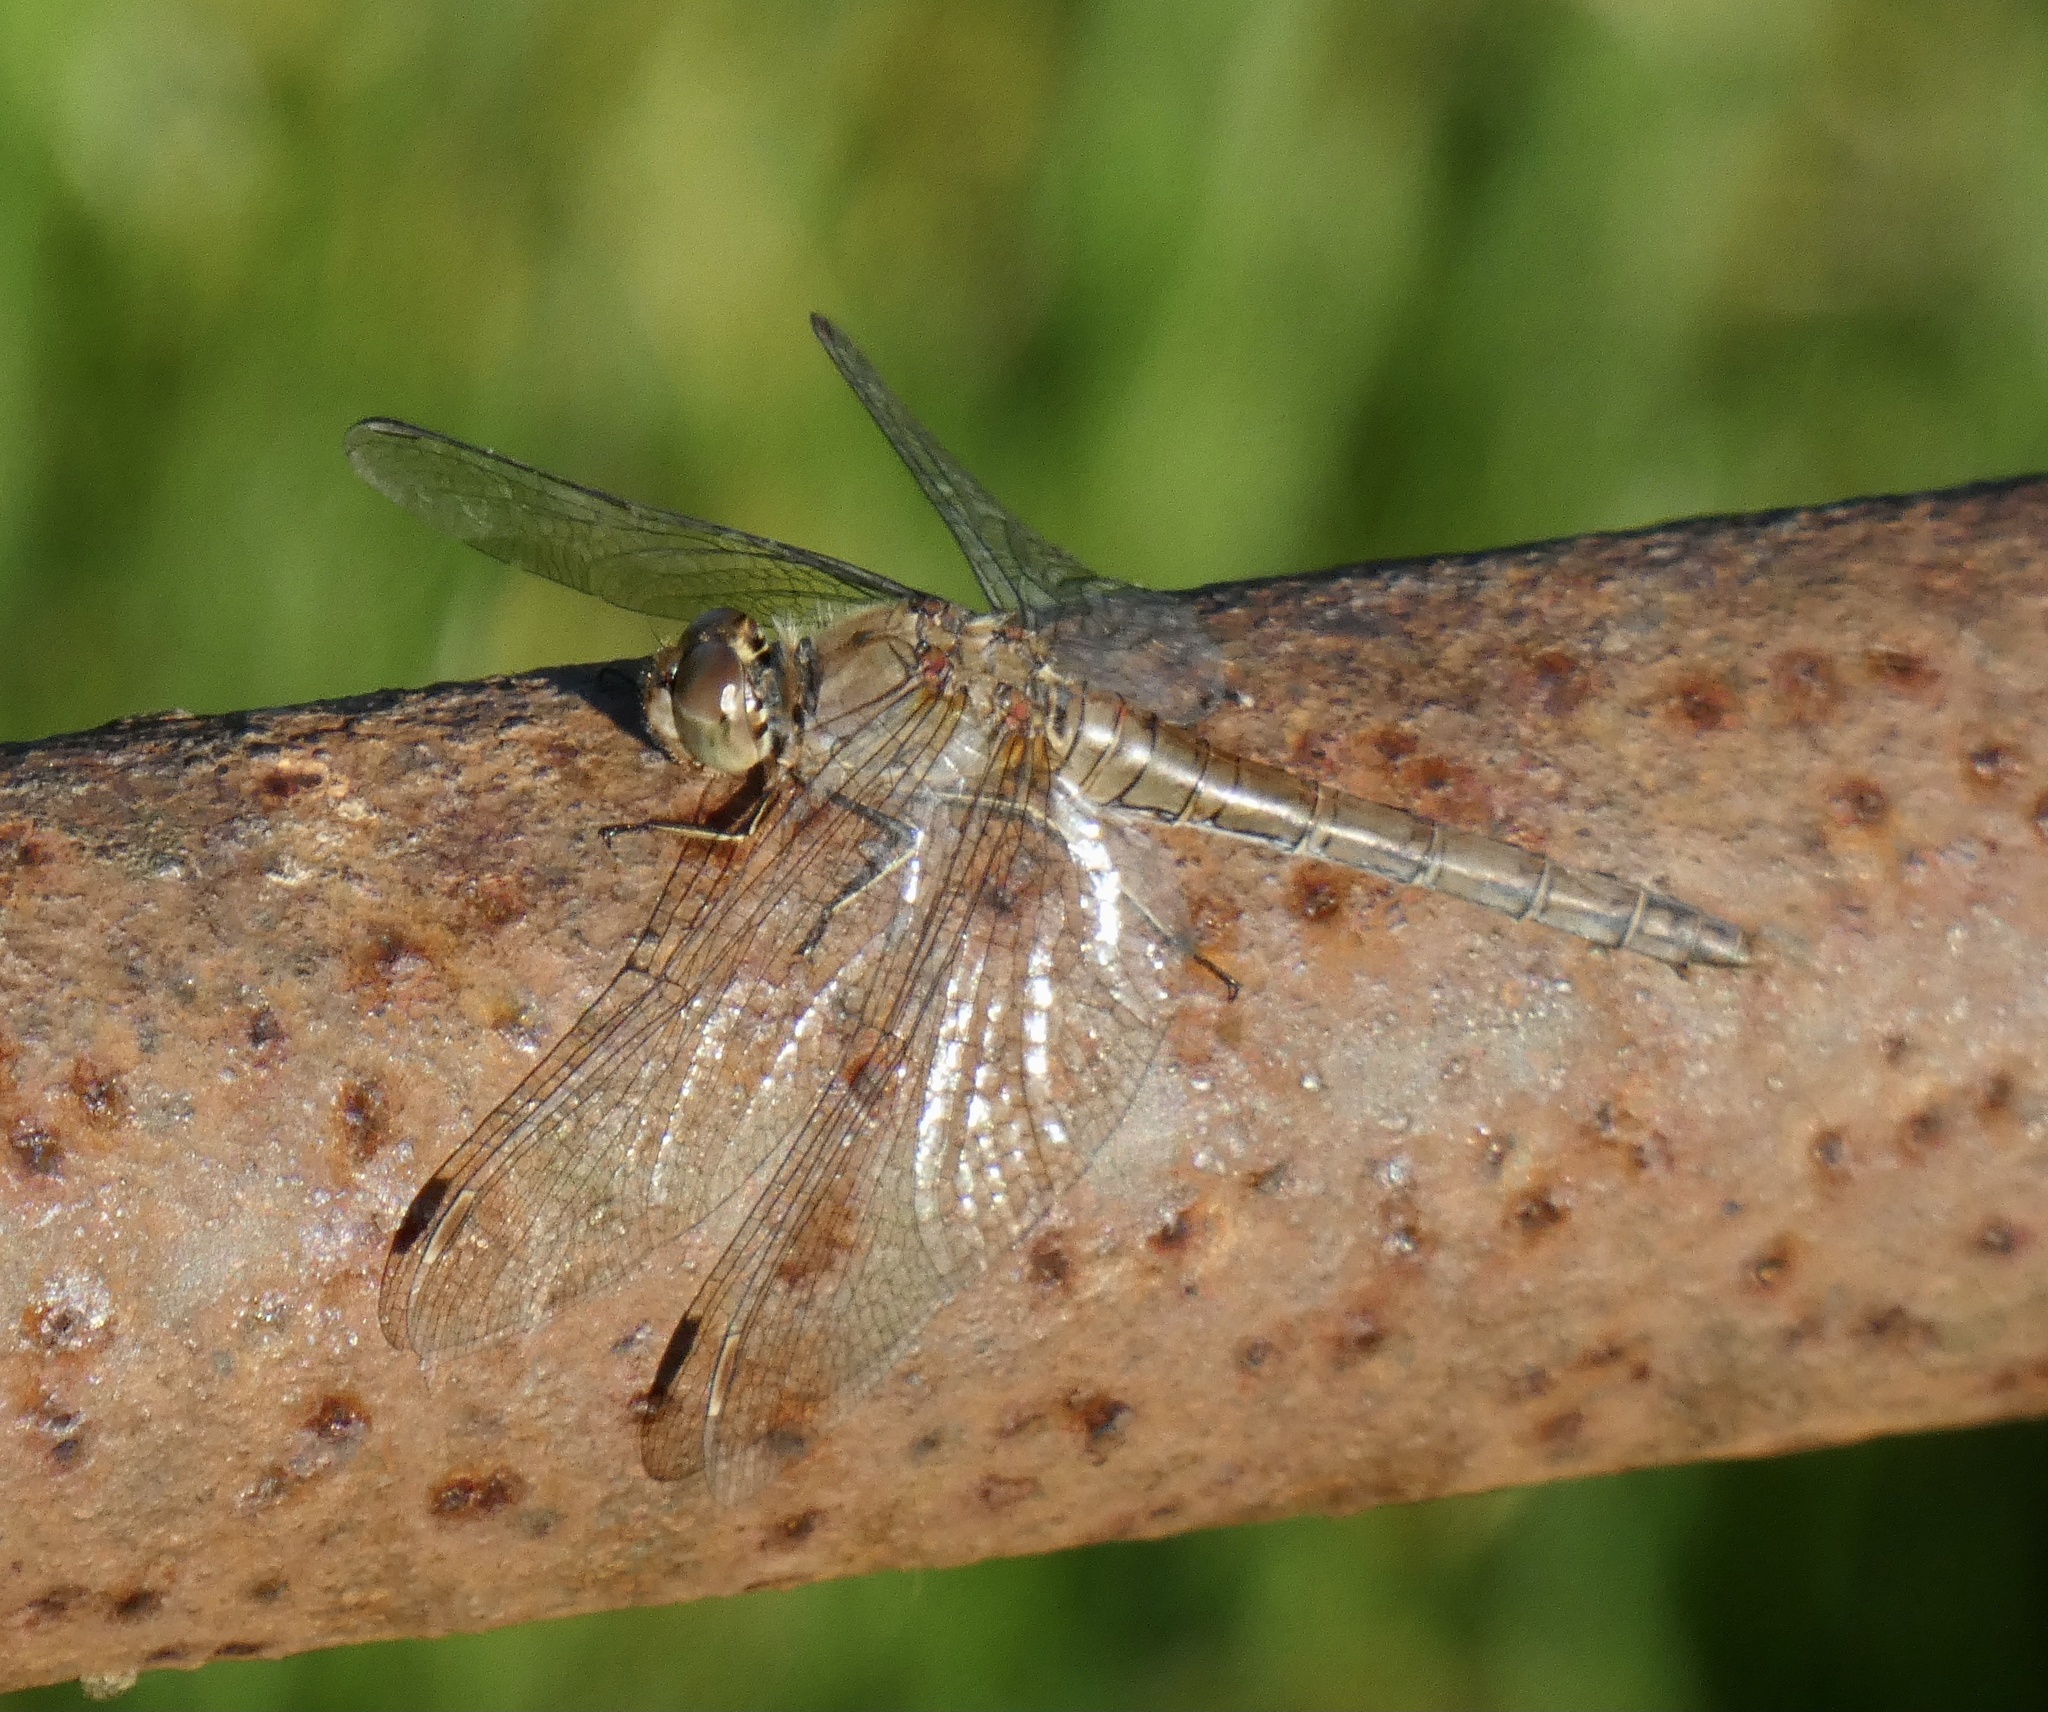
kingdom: Animalia
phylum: Arthropoda
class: Insecta
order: Odonata
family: Libellulidae
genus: Sympetrum
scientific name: Sympetrum striolatum
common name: Common darter
